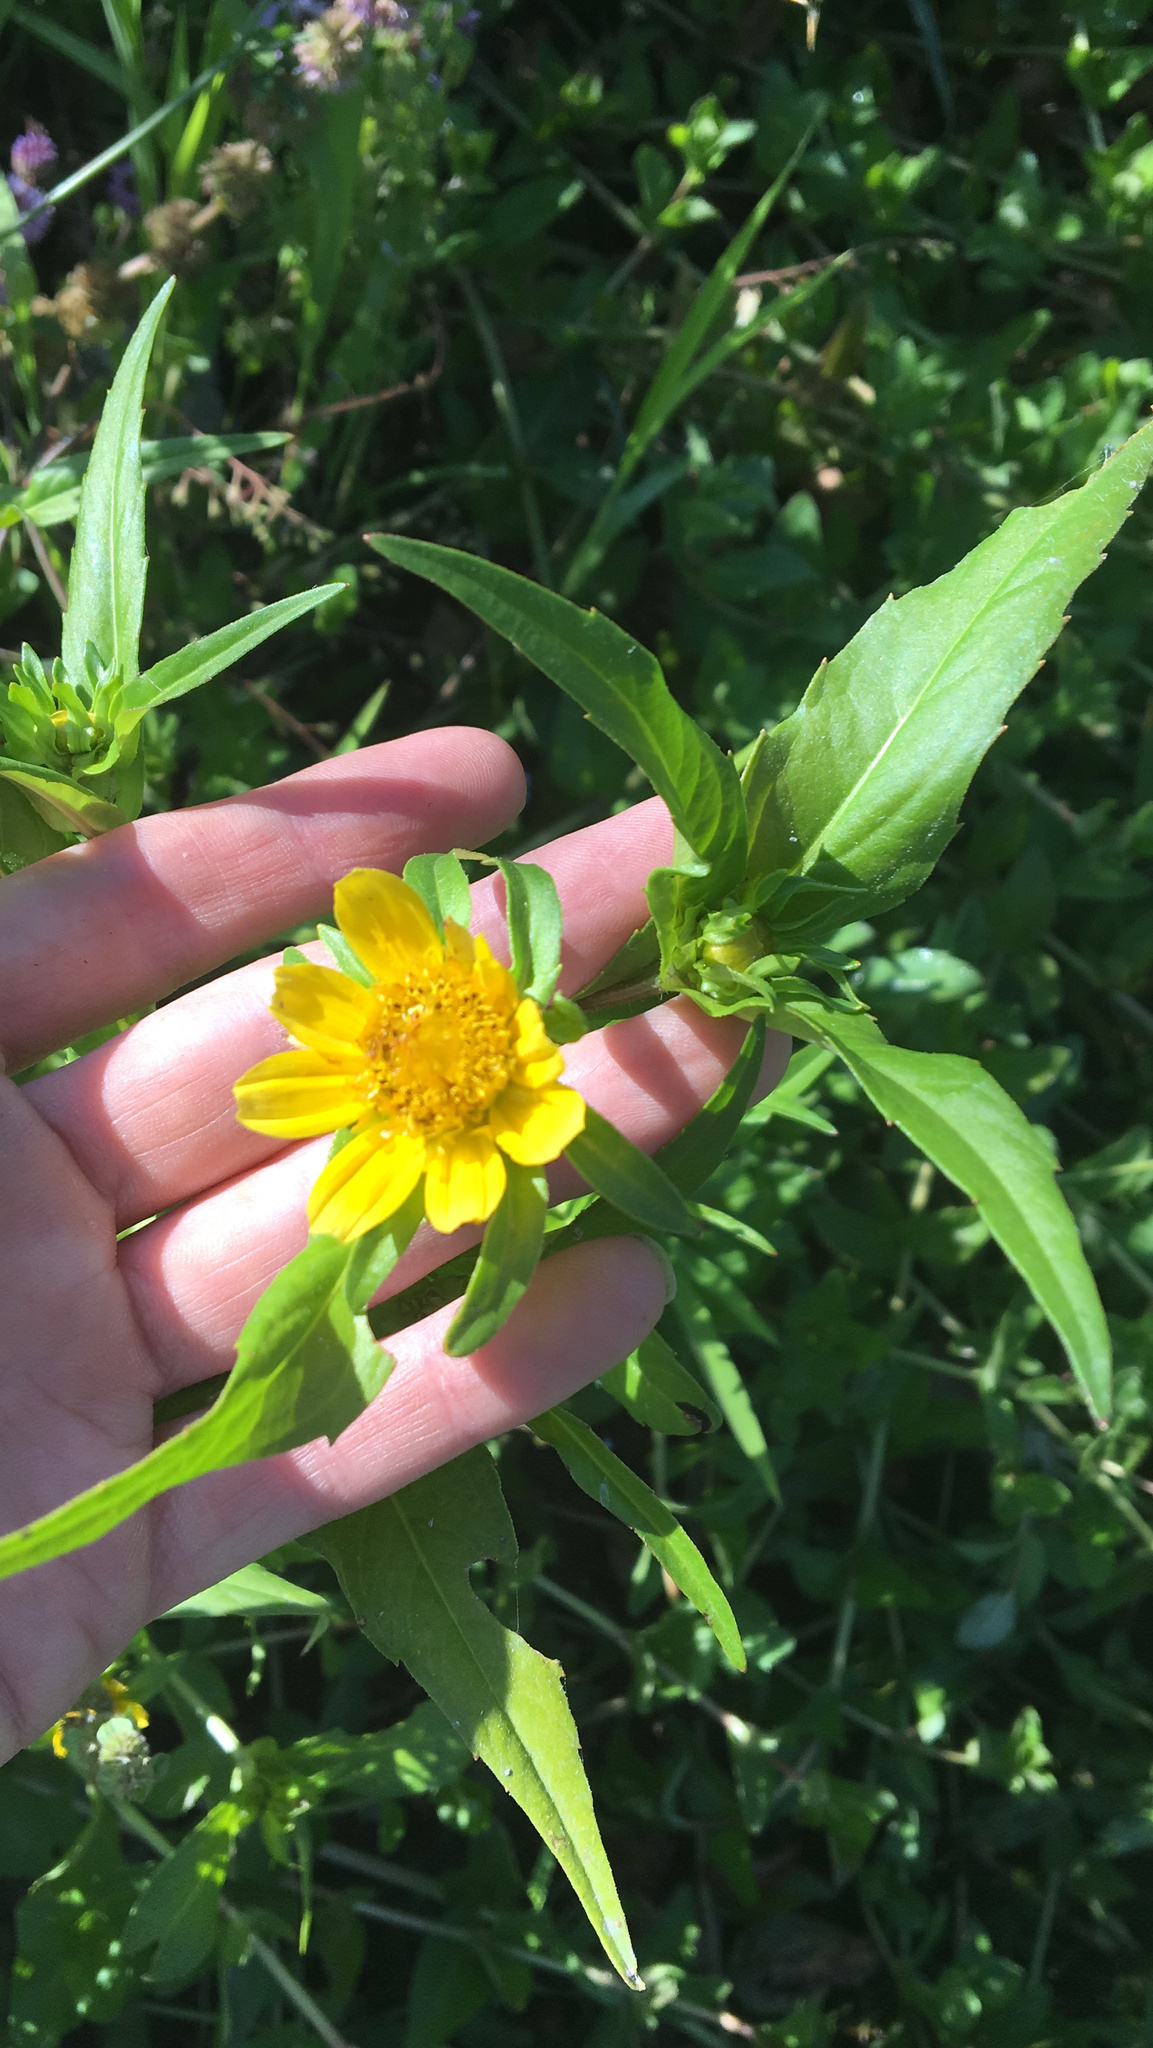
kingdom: Plantae
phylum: Tracheophyta
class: Magnoliopsida
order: Asterales
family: Asteraceae
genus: Bidens
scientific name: Bidens cernua
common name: Nodding bur-marigold
